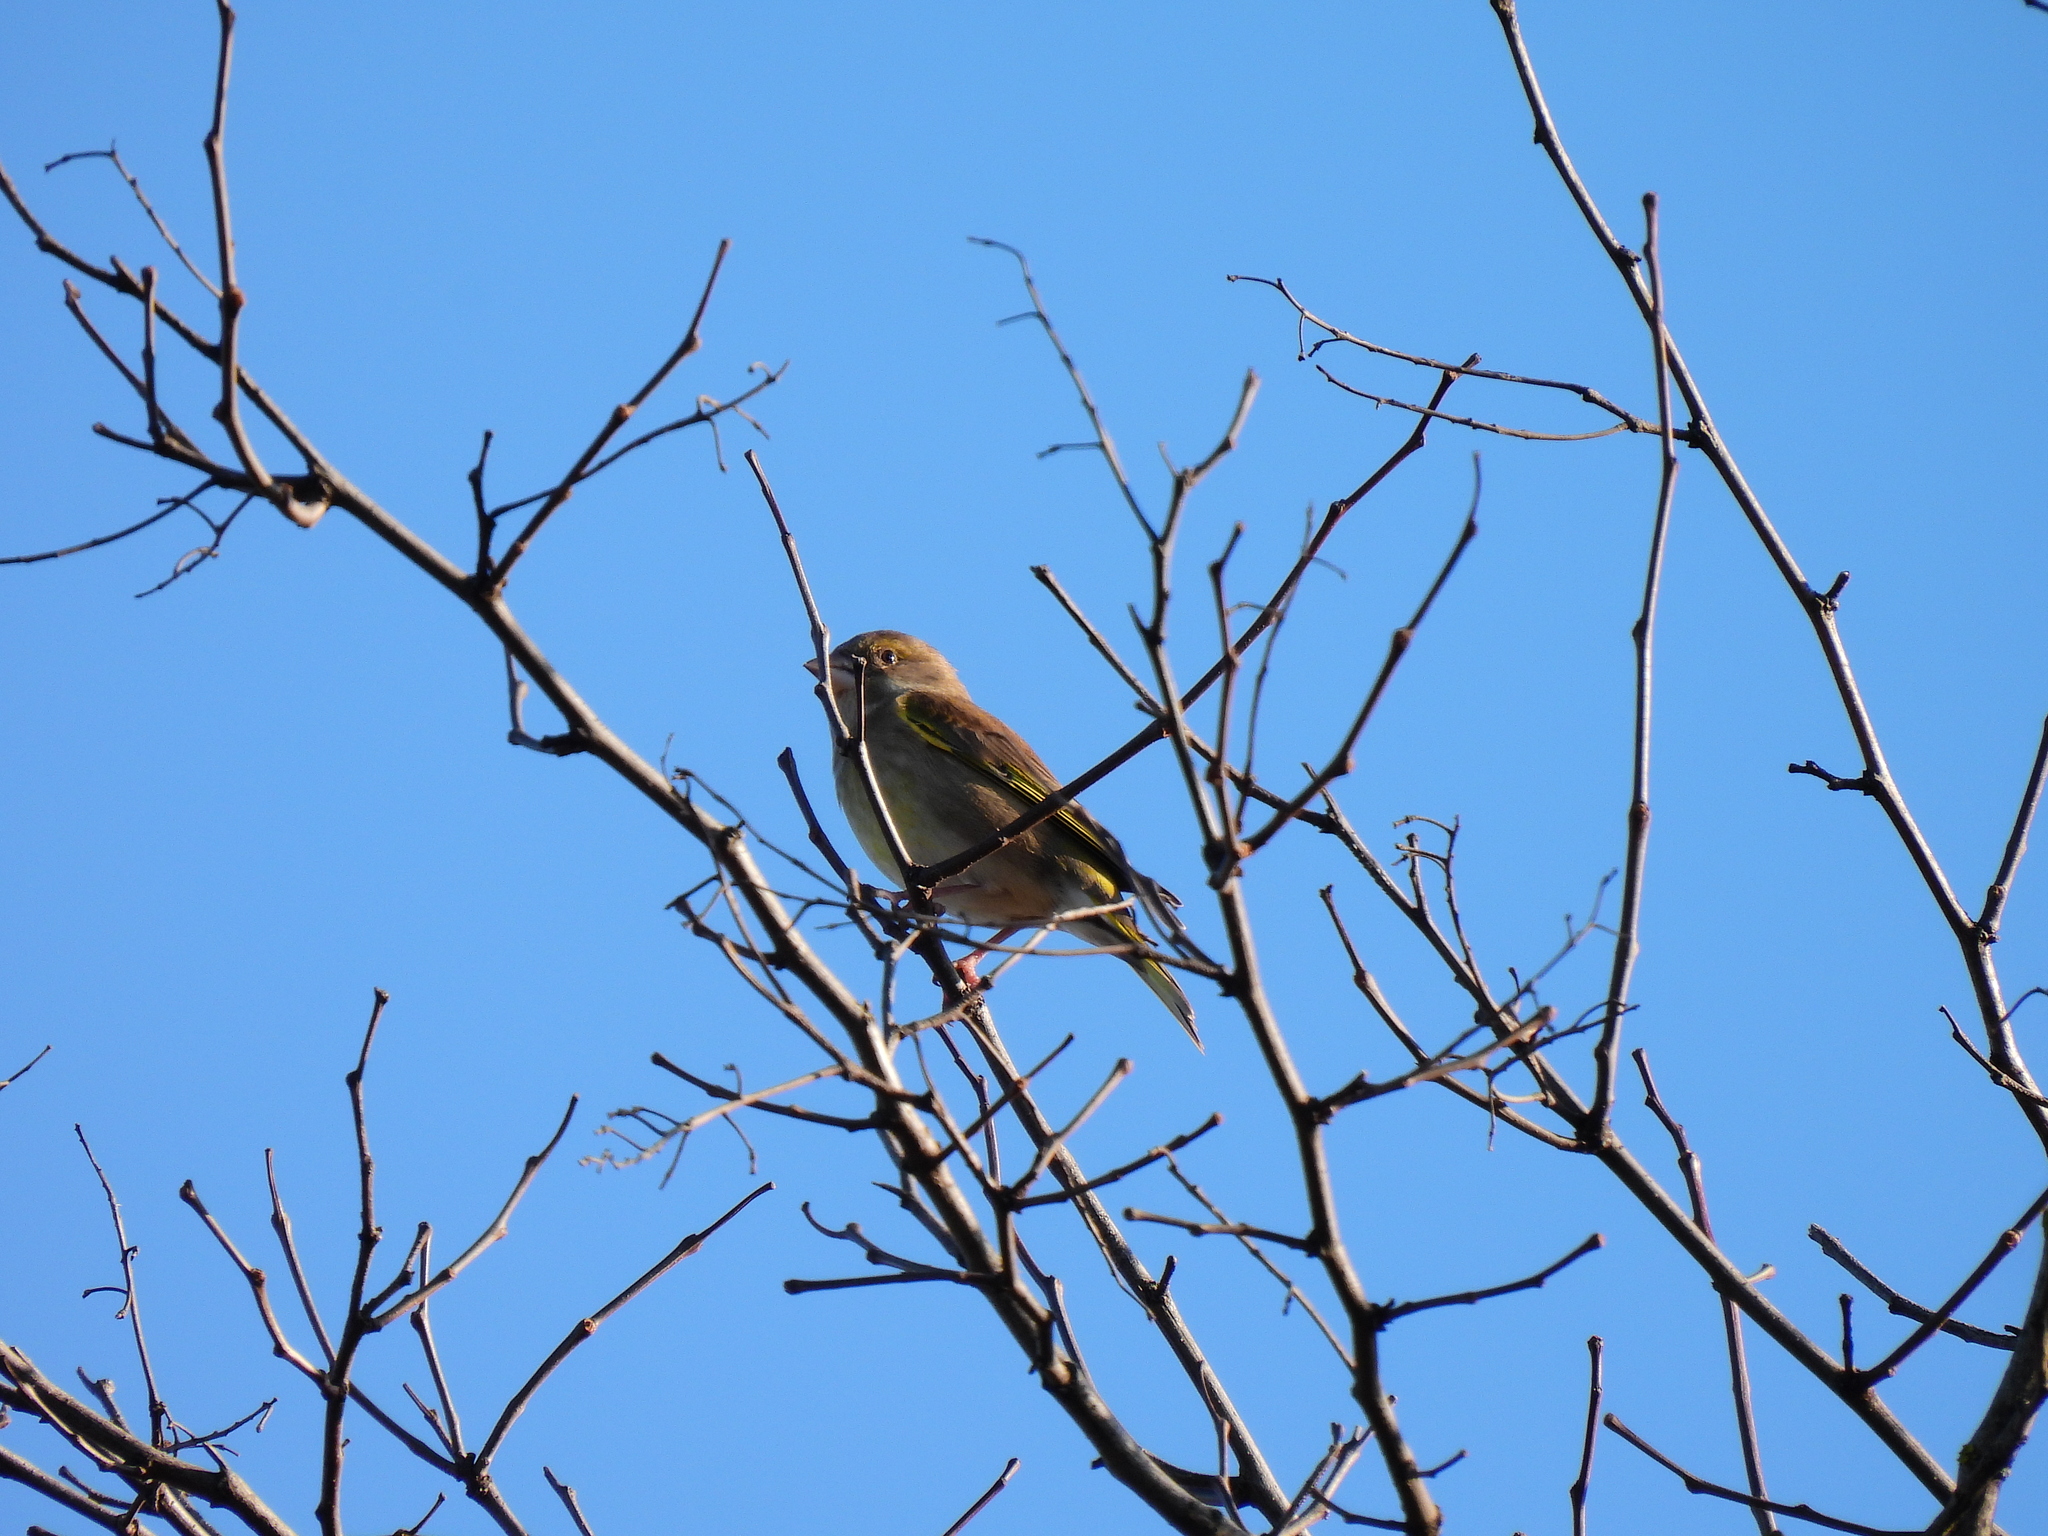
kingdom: Plantae
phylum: Tracheophyta
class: Liliopsida
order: Poales
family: Poaceae
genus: Chloris
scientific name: Chloris chloris
